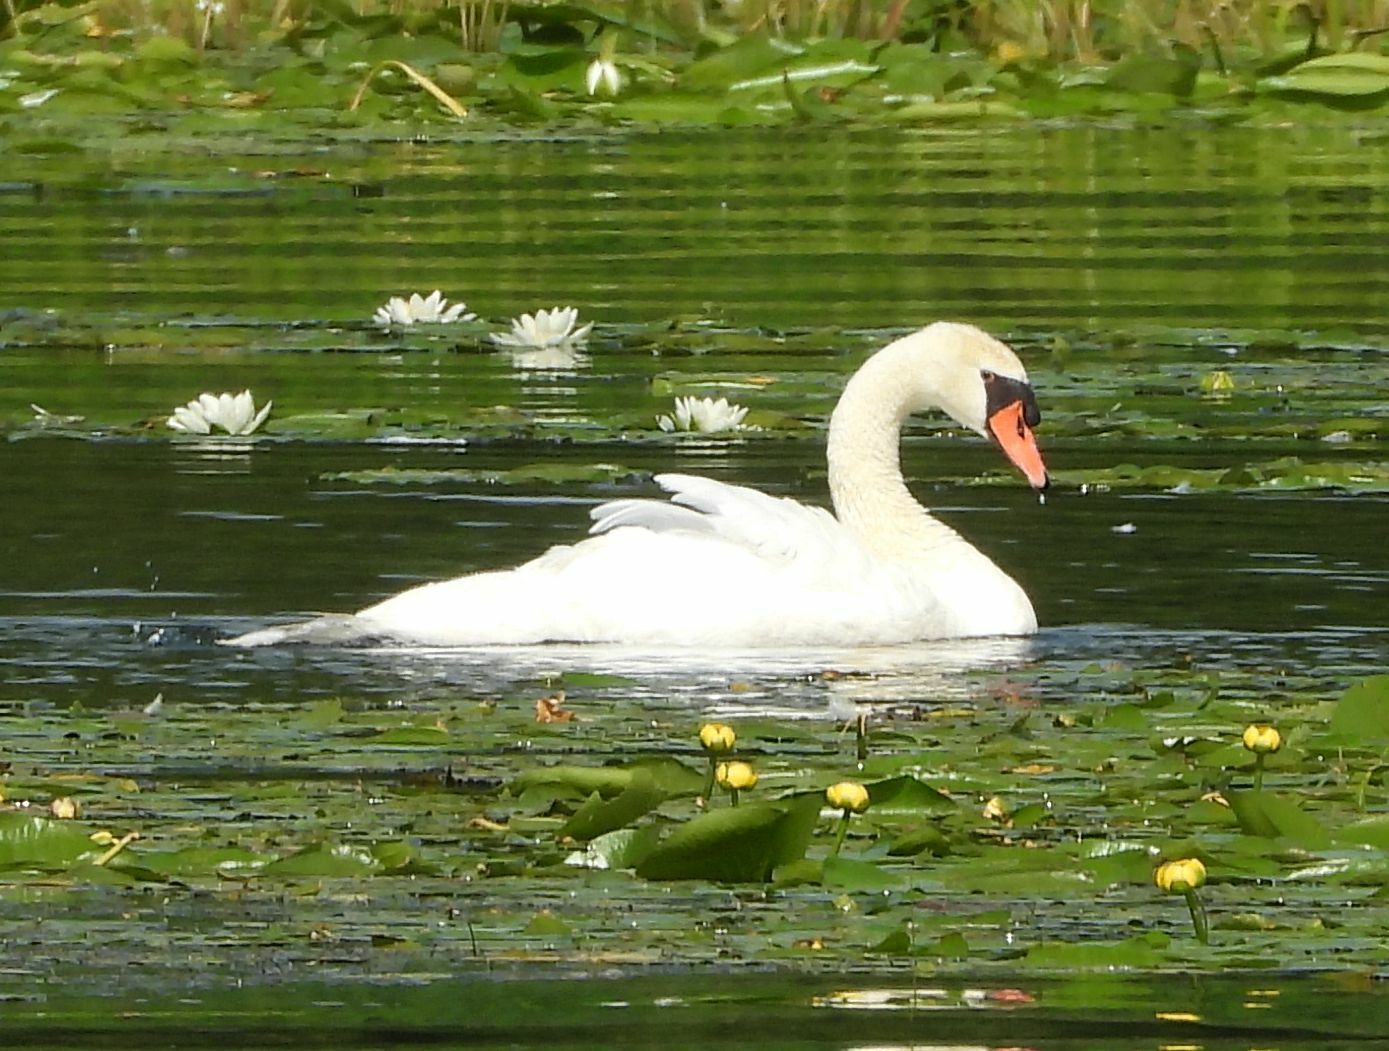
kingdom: Animalia
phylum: Chordata
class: Aves
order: Anseriformes
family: Anatidae
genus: Cygnus
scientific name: Cygnus olor
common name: Mute swan
